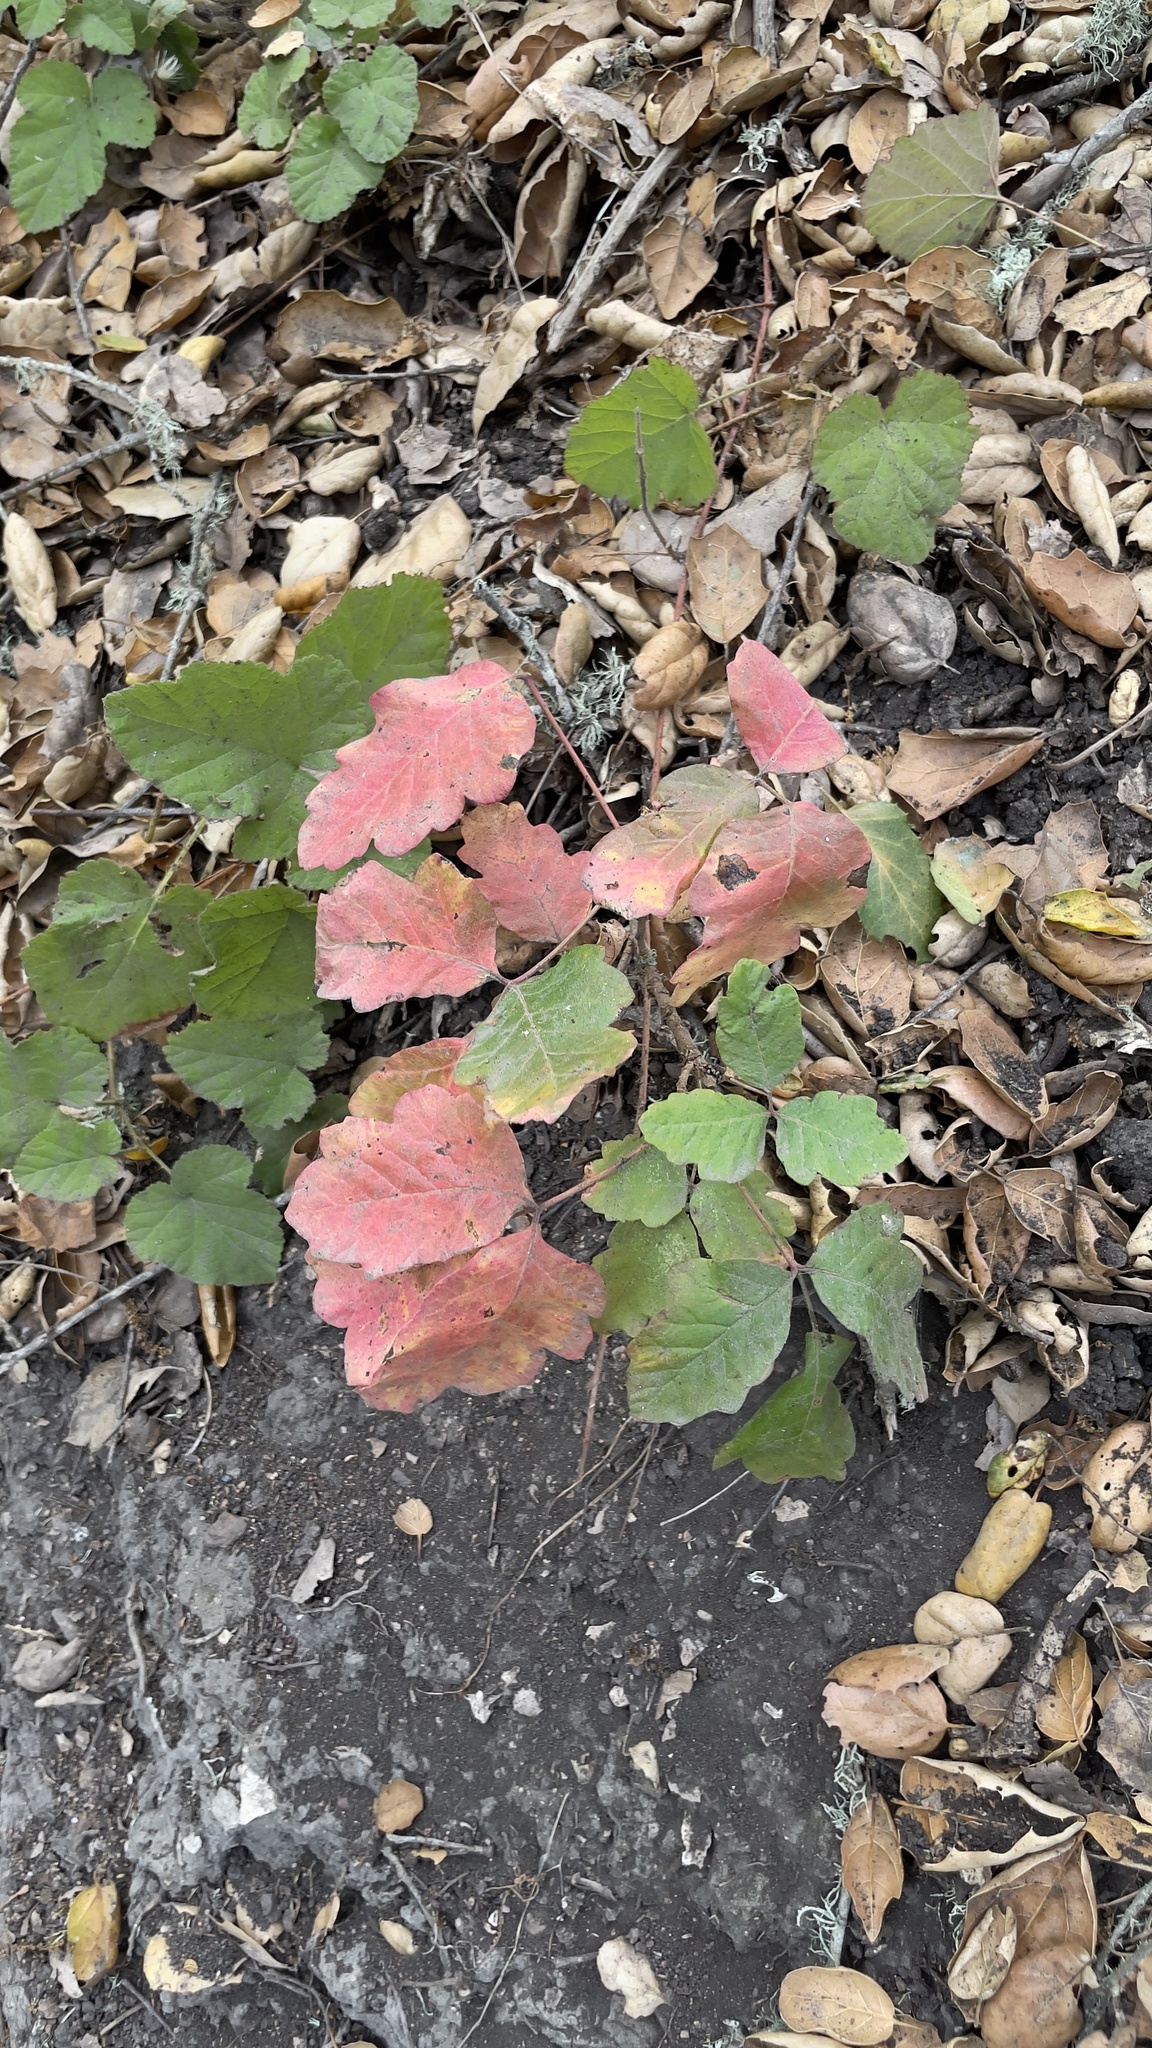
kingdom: Plantae
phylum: Tracheophyta
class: Magnoliopsida
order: Sapindales
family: Anacardiaceae
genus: Toxicodendron
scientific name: Toxicodendron diversilobum
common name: Pacific poison-oak
